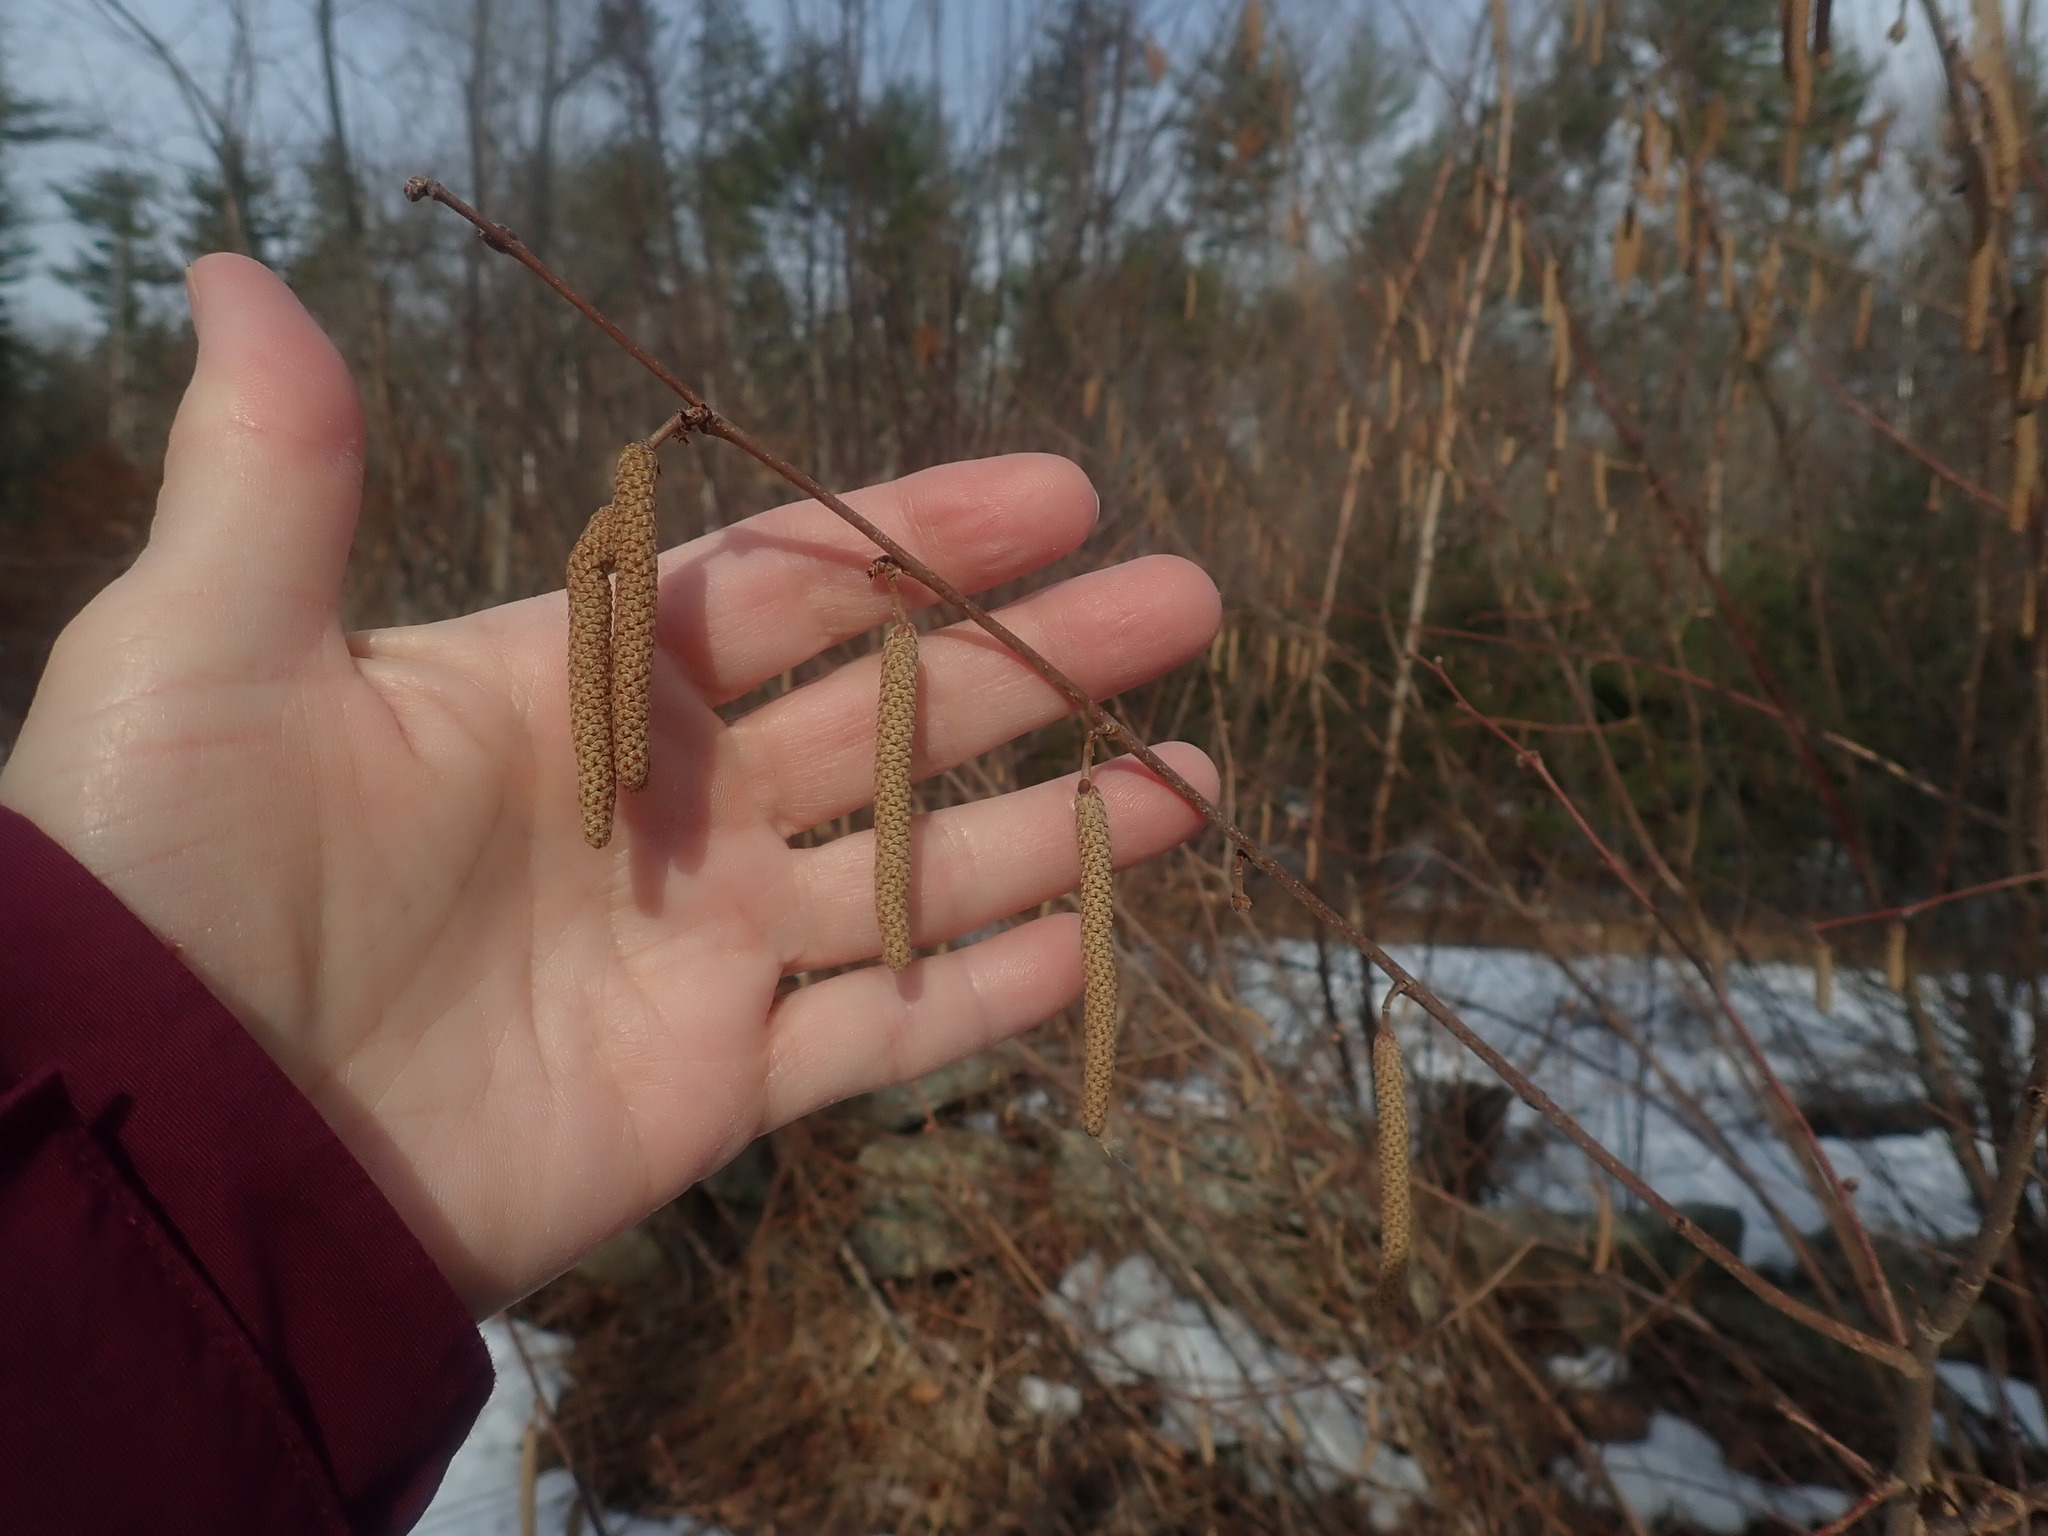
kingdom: Plantae
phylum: Tracheophyta
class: Magnoliopsida
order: Fagales
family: Betulaceae
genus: Corylus
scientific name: Corylus americana
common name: American hazel
